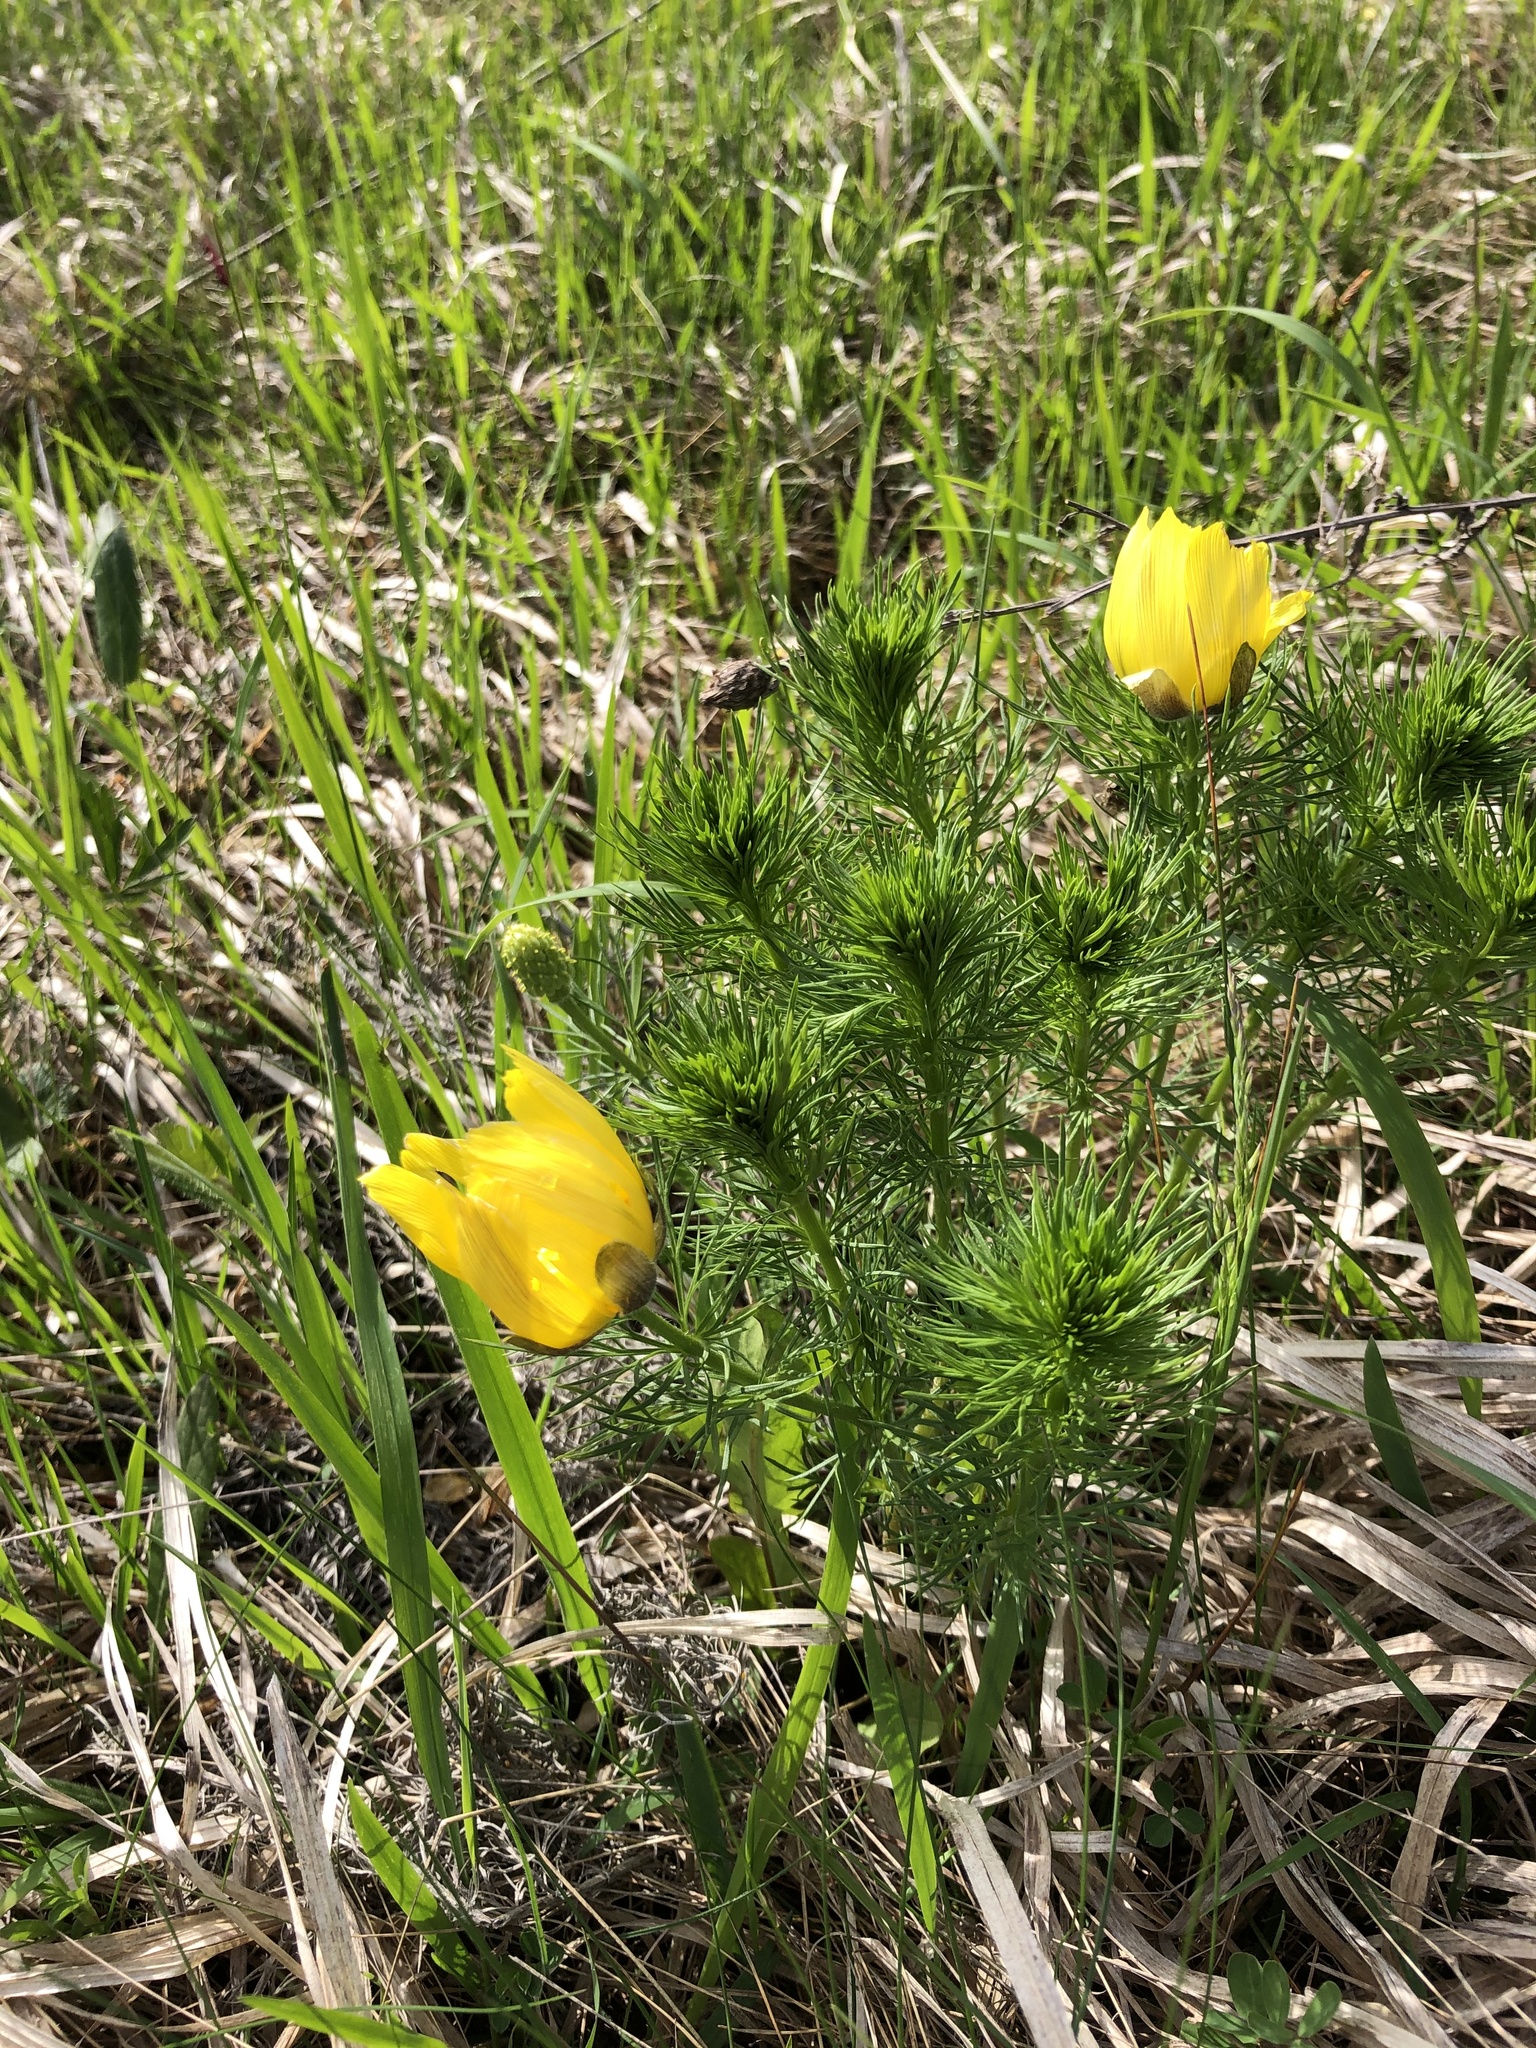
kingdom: Plantae
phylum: Tracheophyta
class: Magnoliopsida
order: Ranunculales
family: Ranunculaceae
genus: Adonis
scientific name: Adonis vernalis
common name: Yellow pheasants-eye
